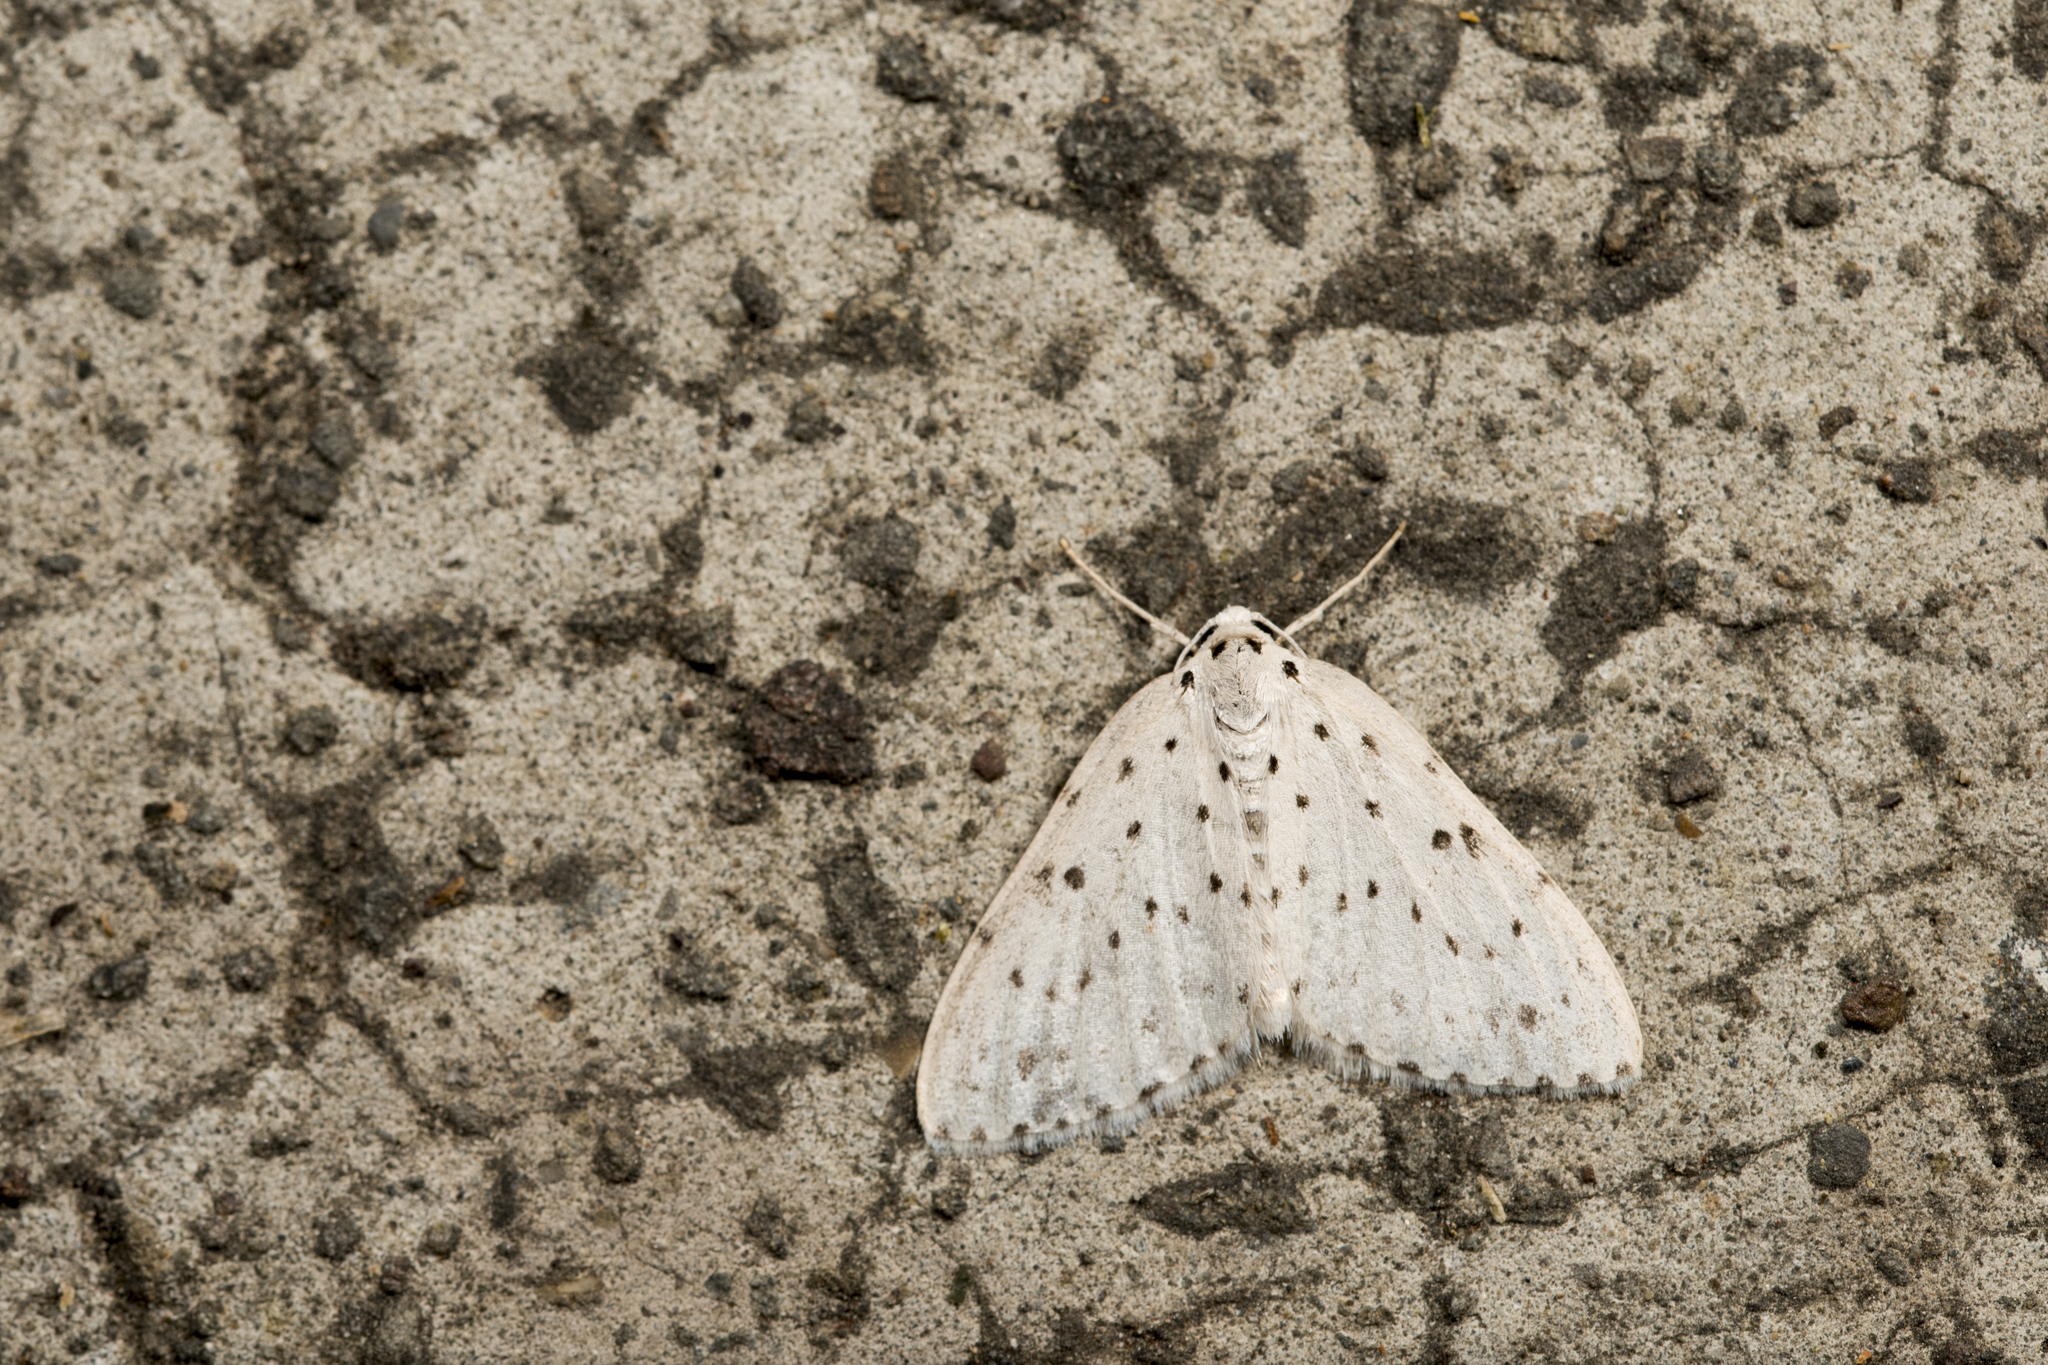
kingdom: Animalia
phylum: Arthropoda
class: Insecta
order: Lepidoptera
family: Geometridae
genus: Naxidia
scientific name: Naxidia punctata
